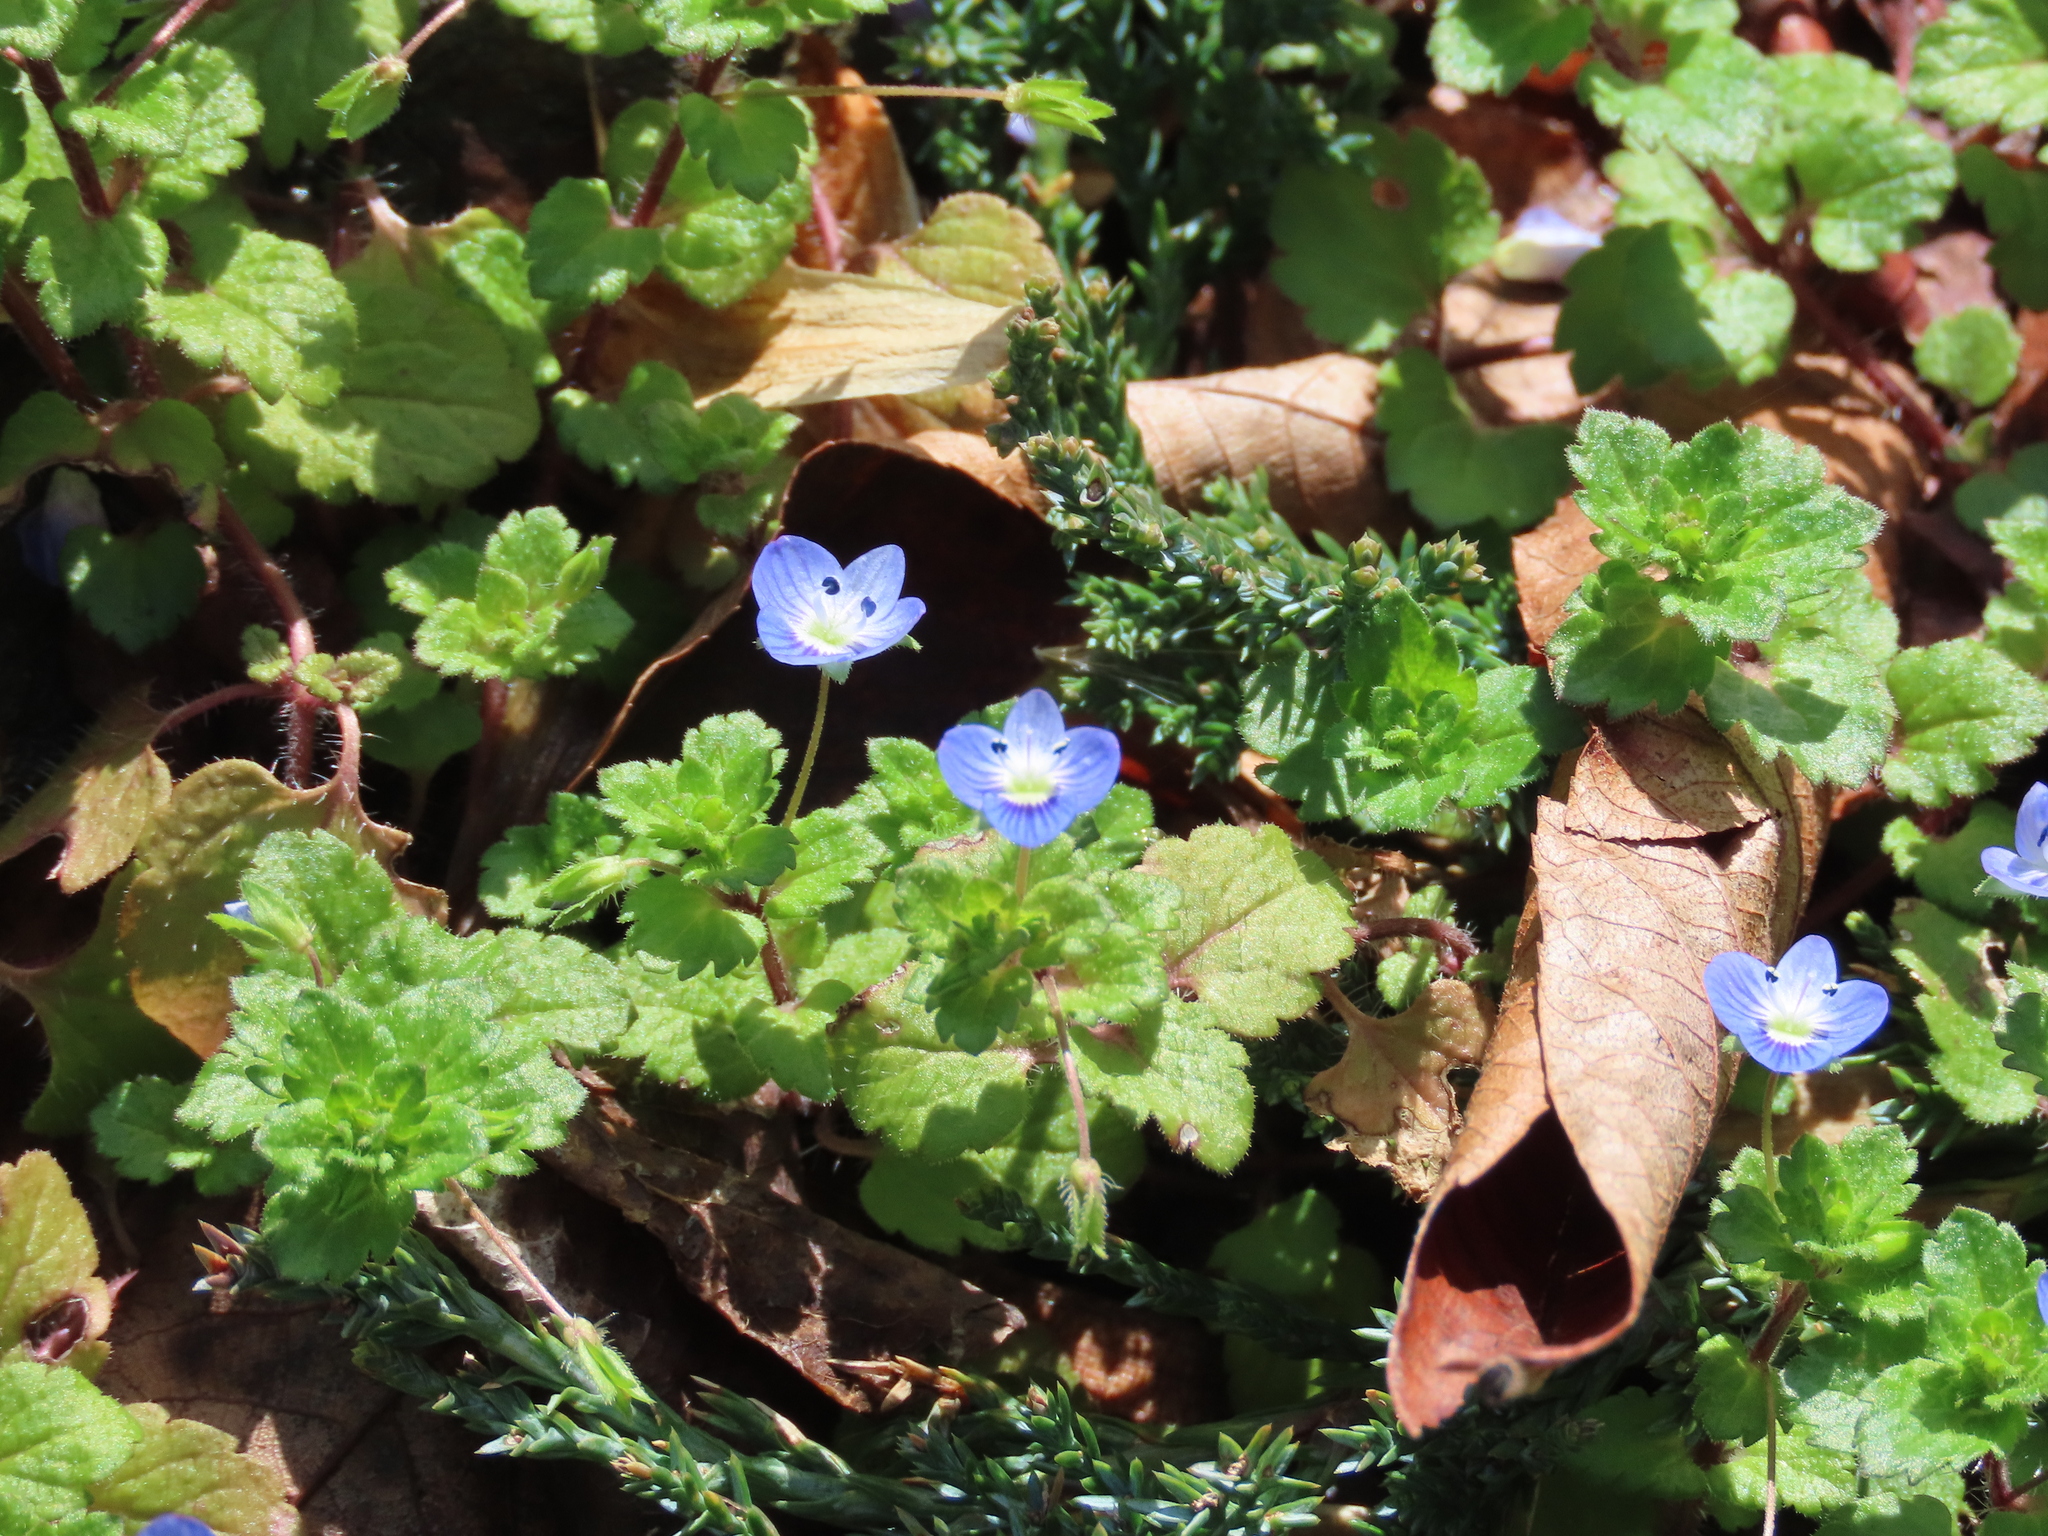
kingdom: Plantae
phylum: Tracheophyta
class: Magnoliopsida
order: Lamiales
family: Plantaginaceae
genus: Veronica
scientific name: Veronica persica
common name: Common field-speedwell
